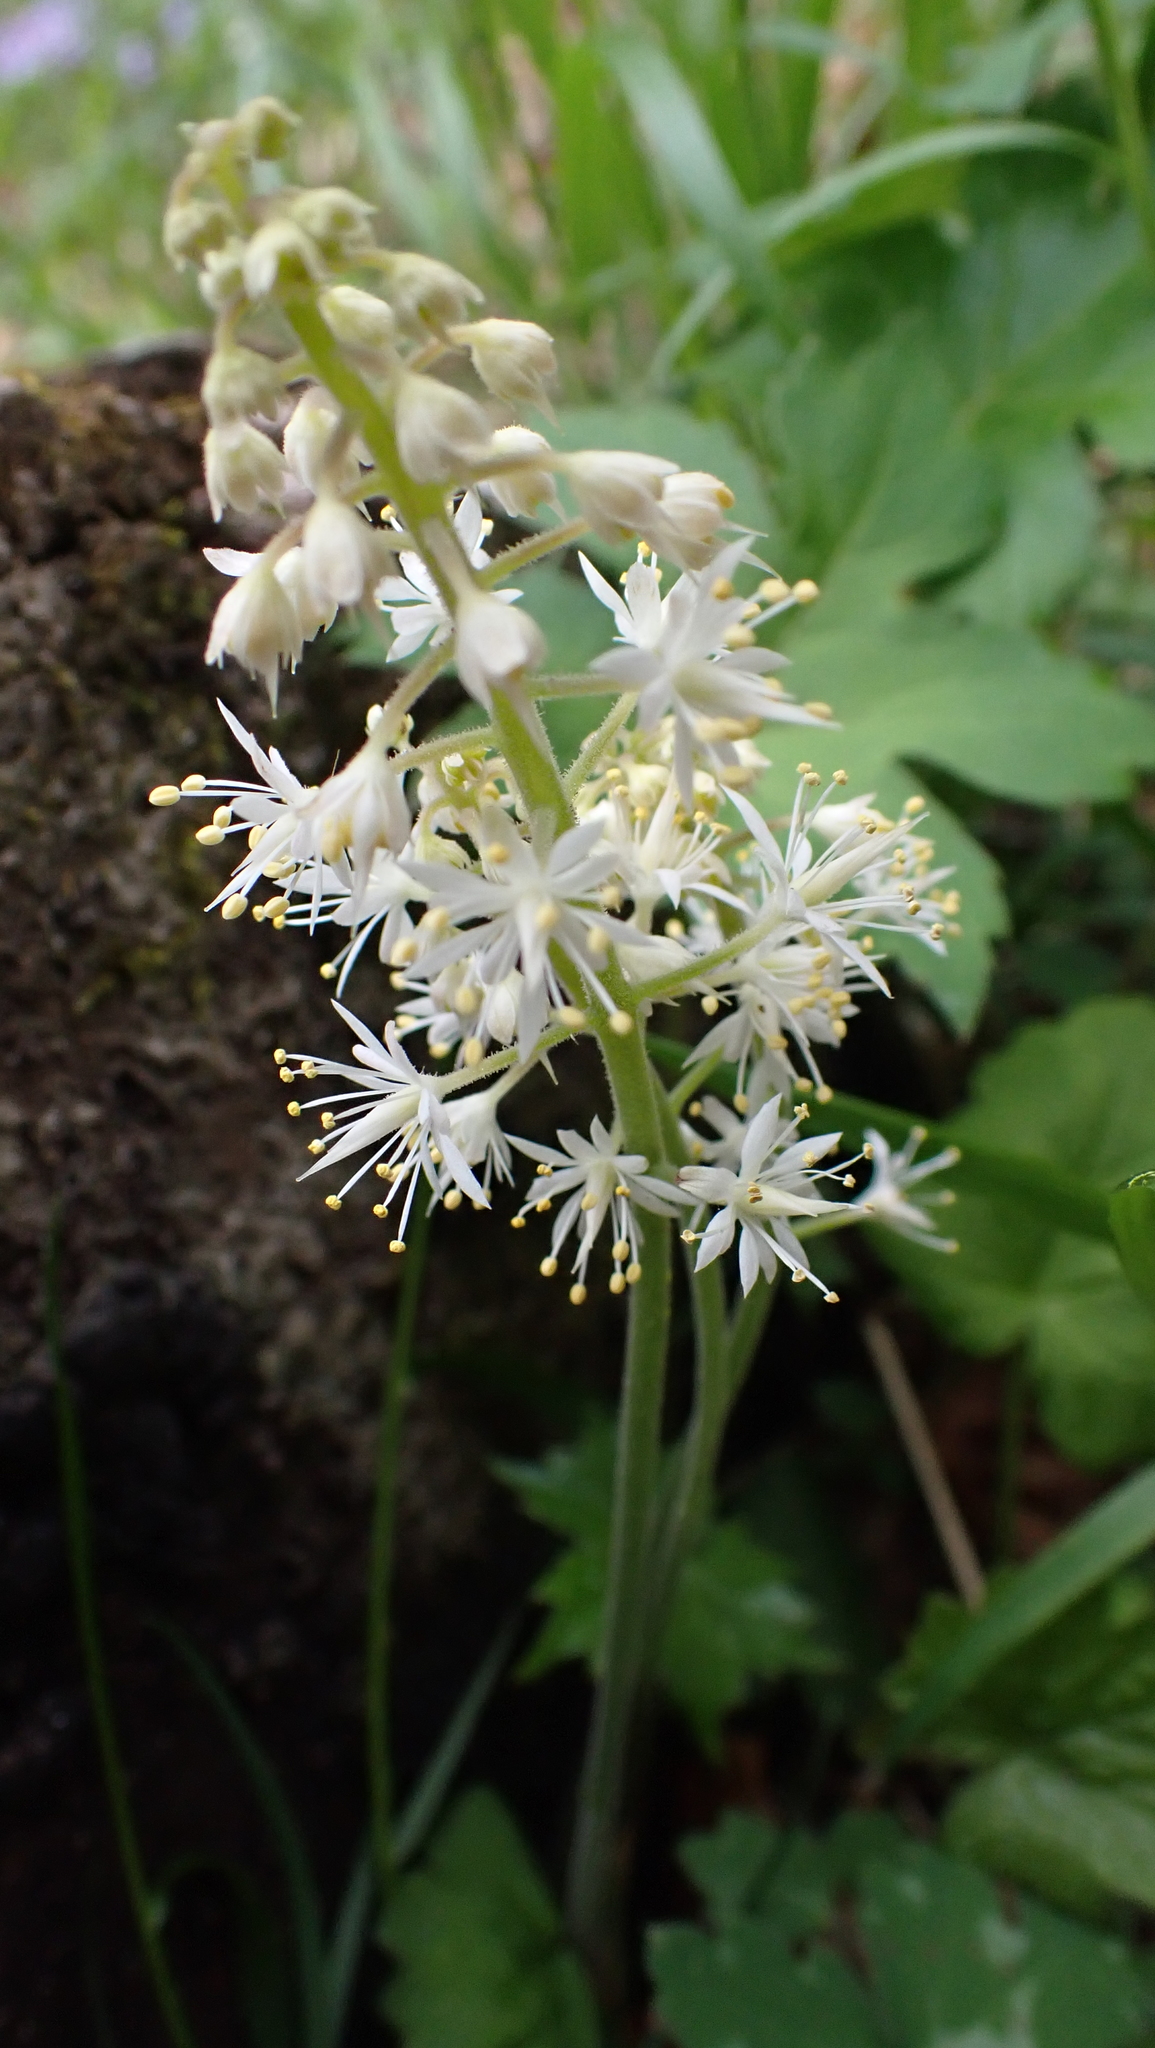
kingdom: Plantae
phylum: Tracheophyta
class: Magnoliopsida
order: Saxifragales
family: Saxifragaceae
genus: Tiarella
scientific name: Tiarella stolonifera
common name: Stoloniferous foamflower
